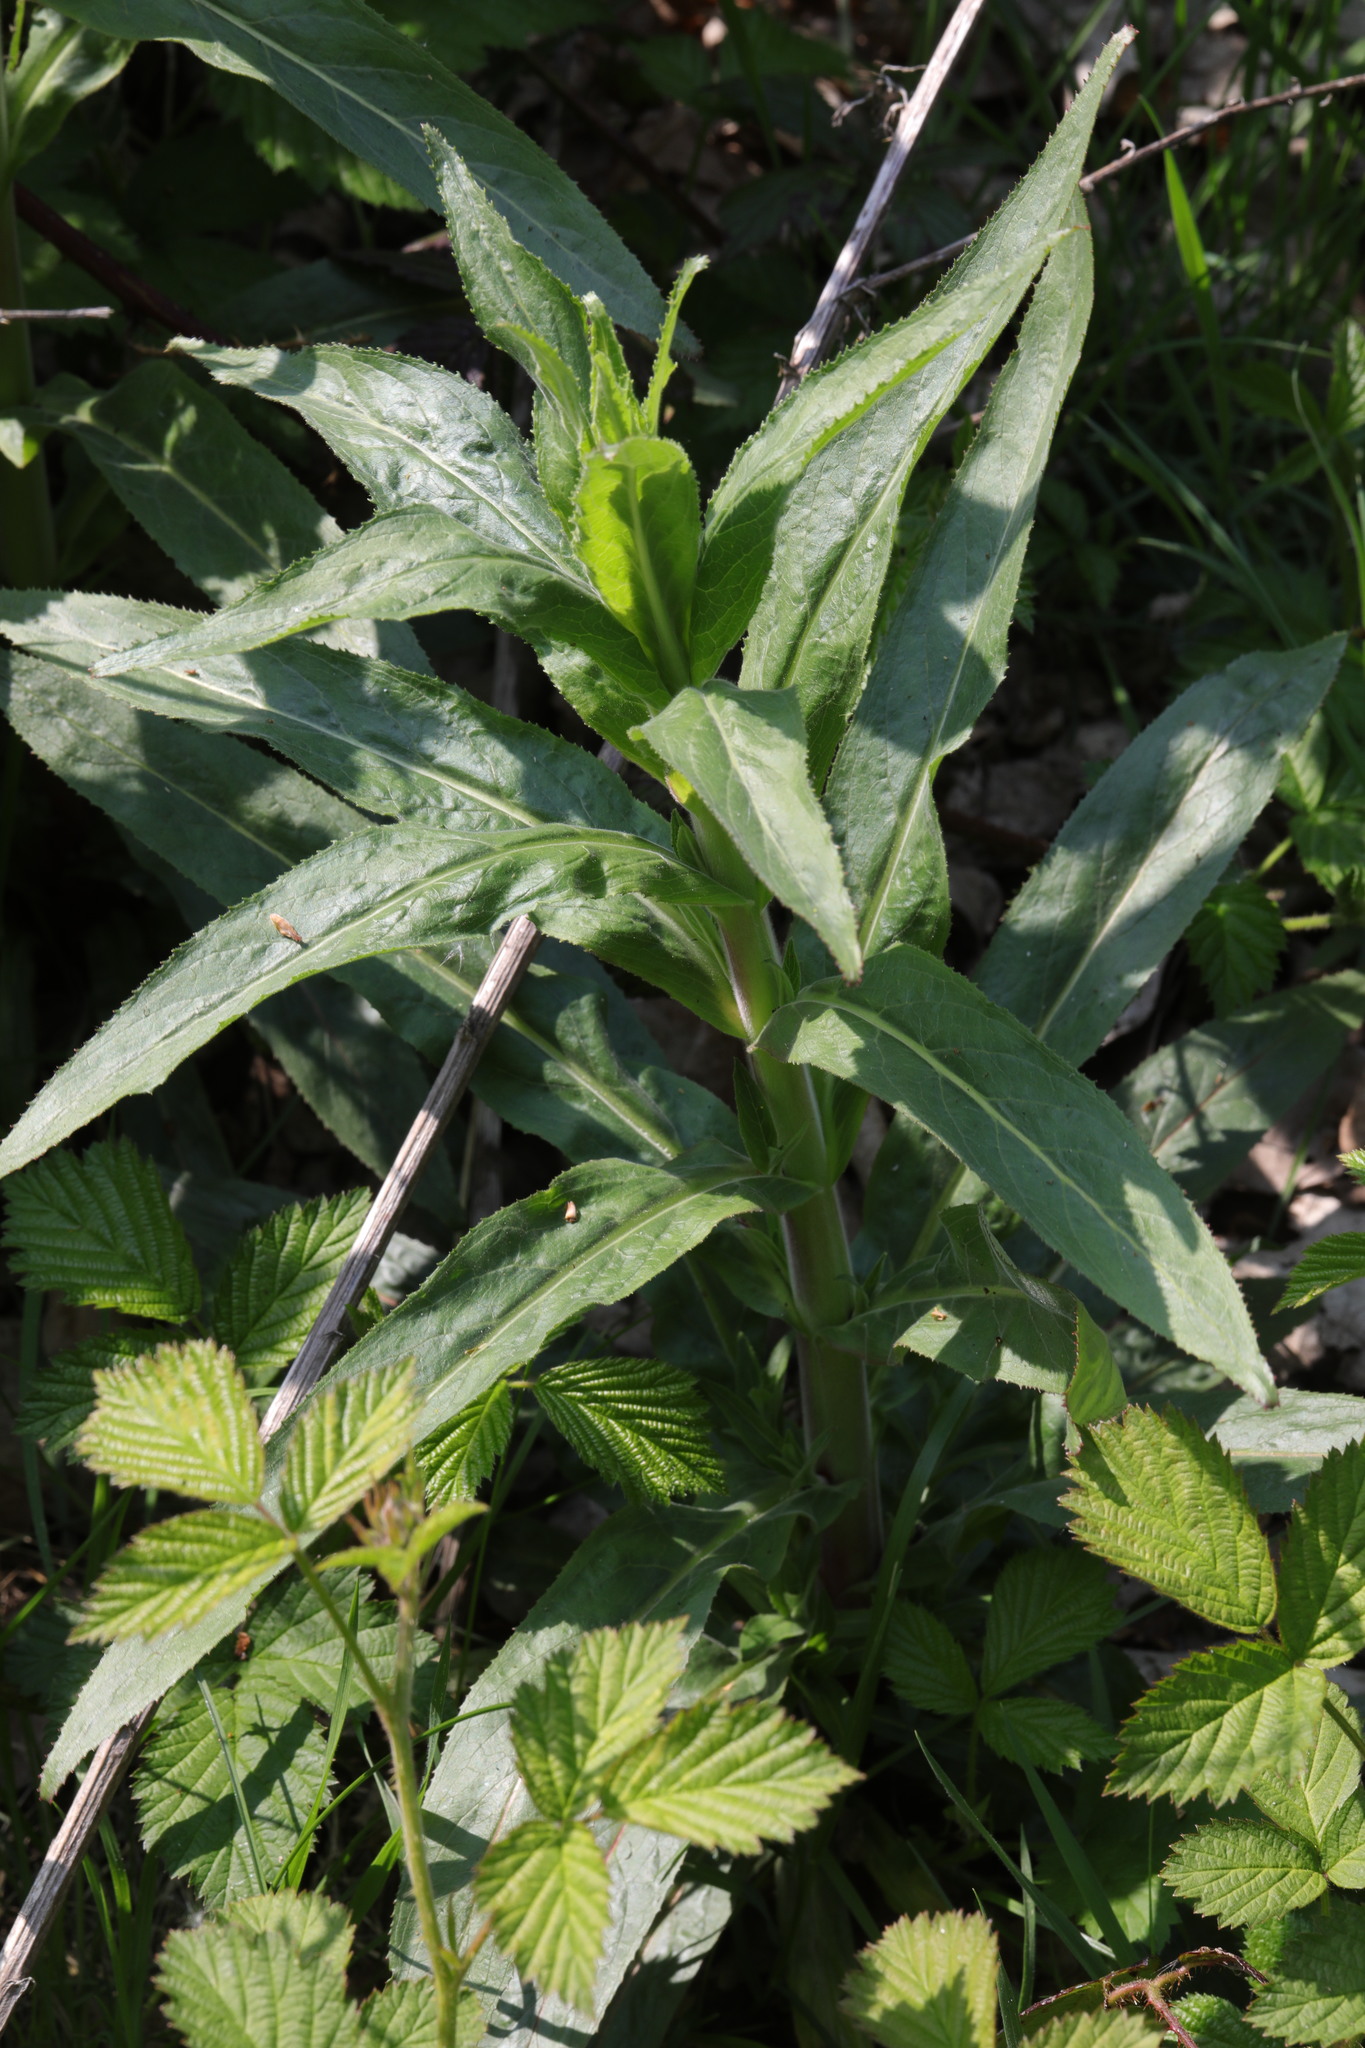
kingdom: Plantae
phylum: Tracheophyta
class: Magnoliopsida
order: Myrtales
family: Onagraceae
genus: Epilobium
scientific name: Epilobium hirsutum
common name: Great willowherb
